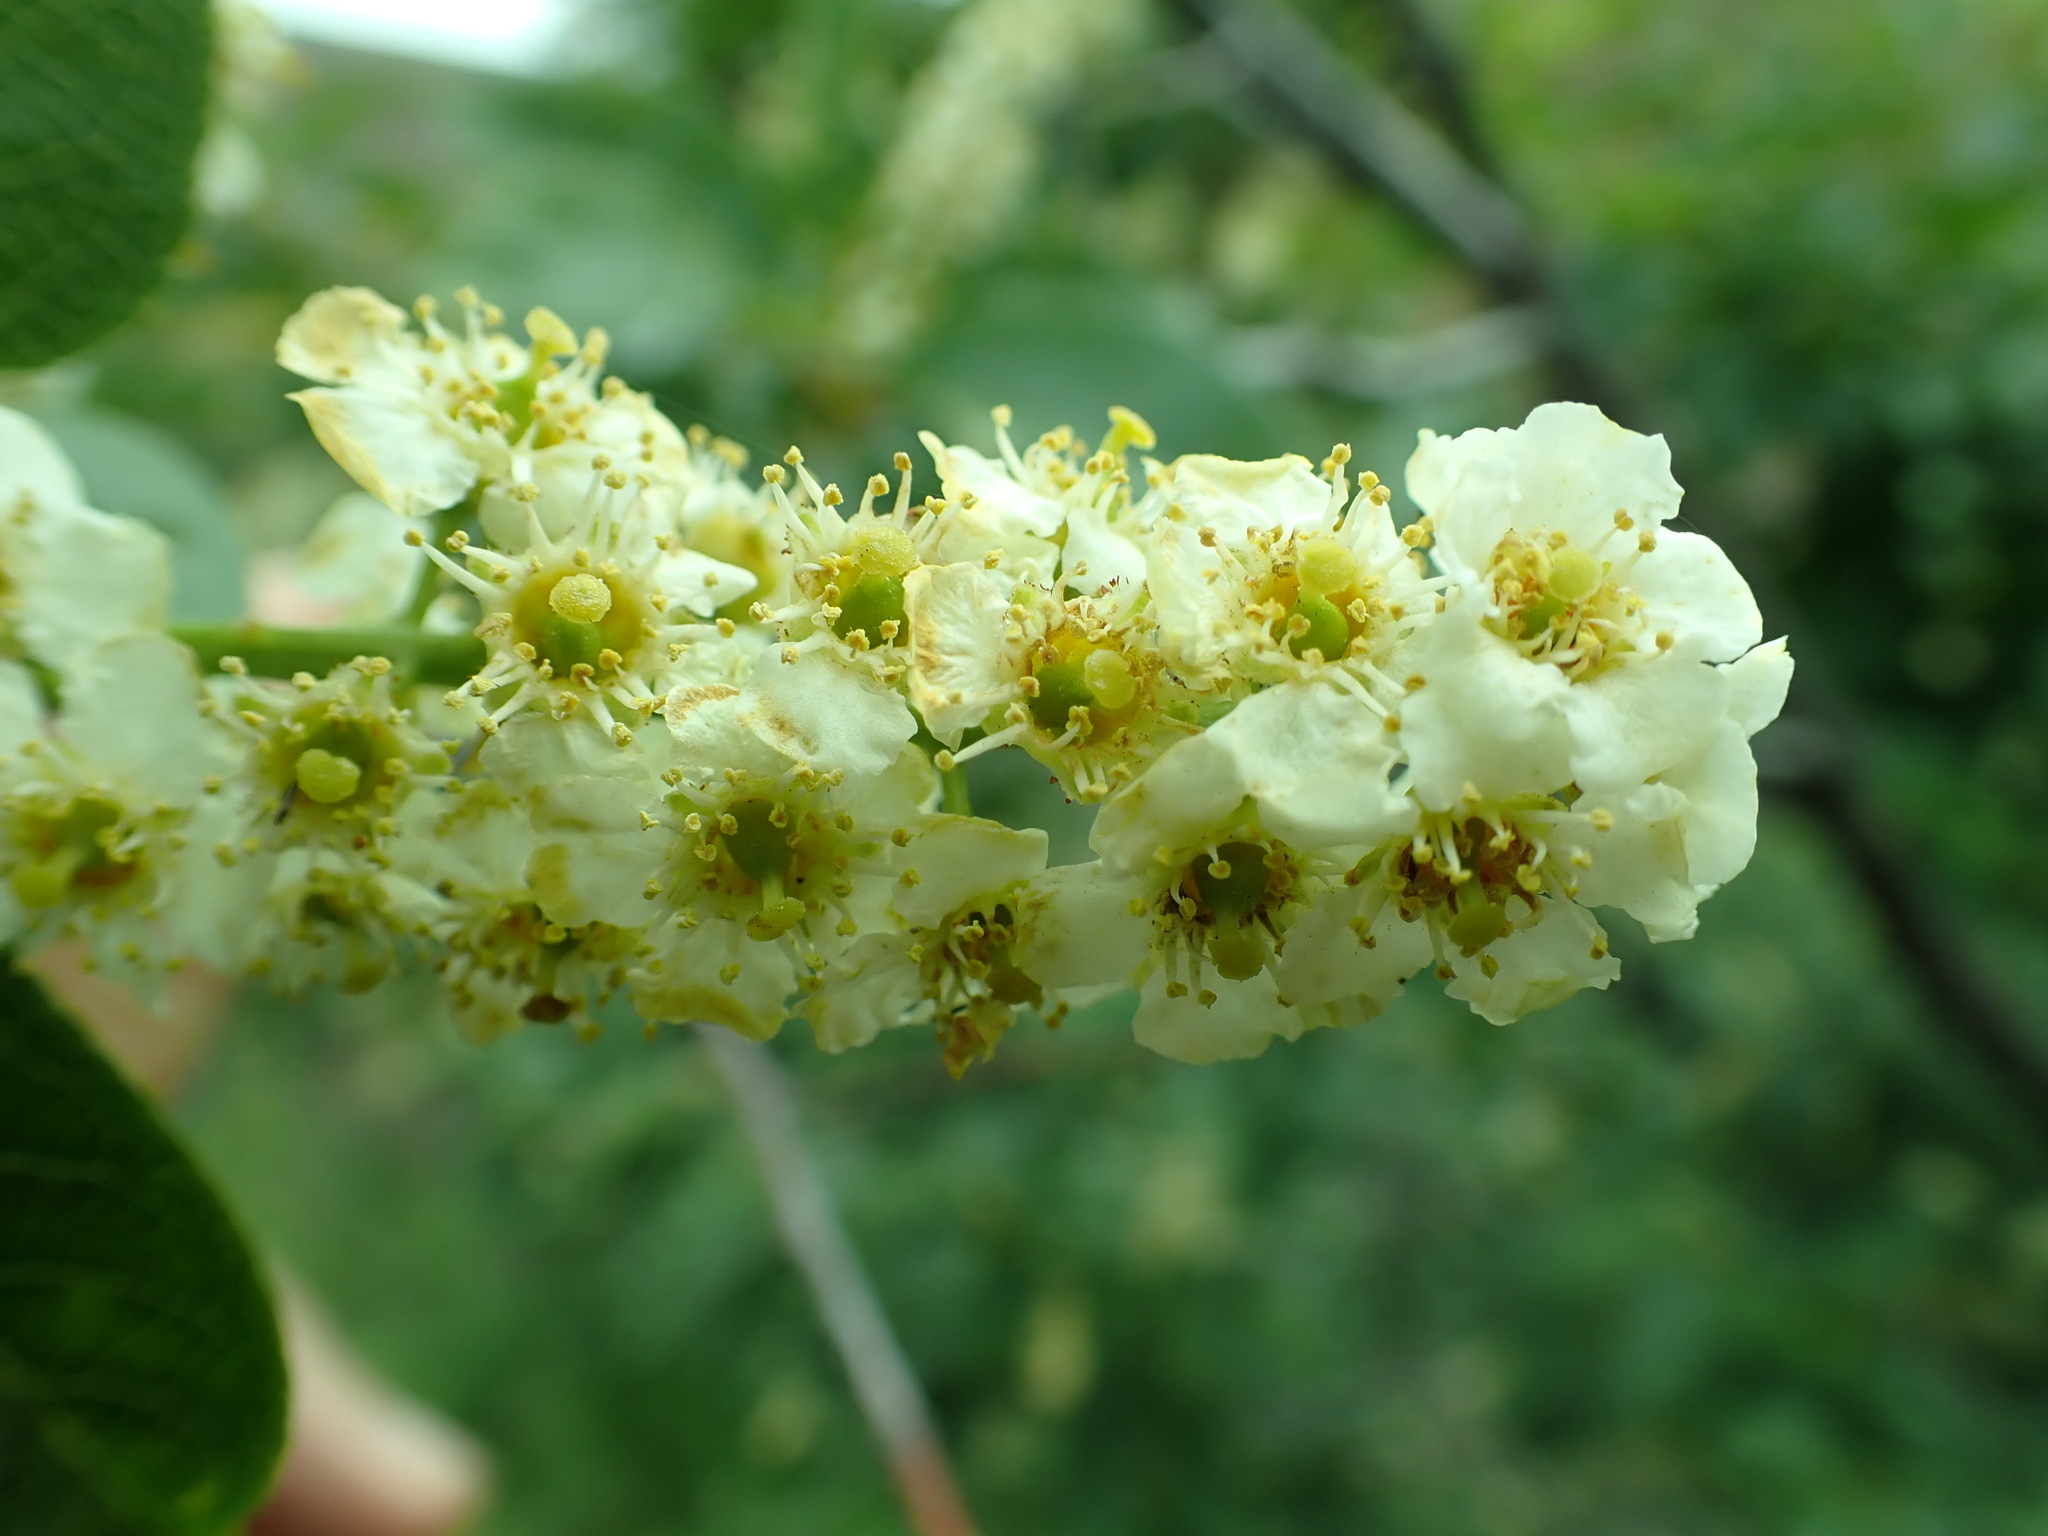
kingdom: Plantae
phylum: Tracheophyta
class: Magnoliopsida
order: Rosales
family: Rosaceae
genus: Prunus
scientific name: Prunus virginiana
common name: Chokecherry
